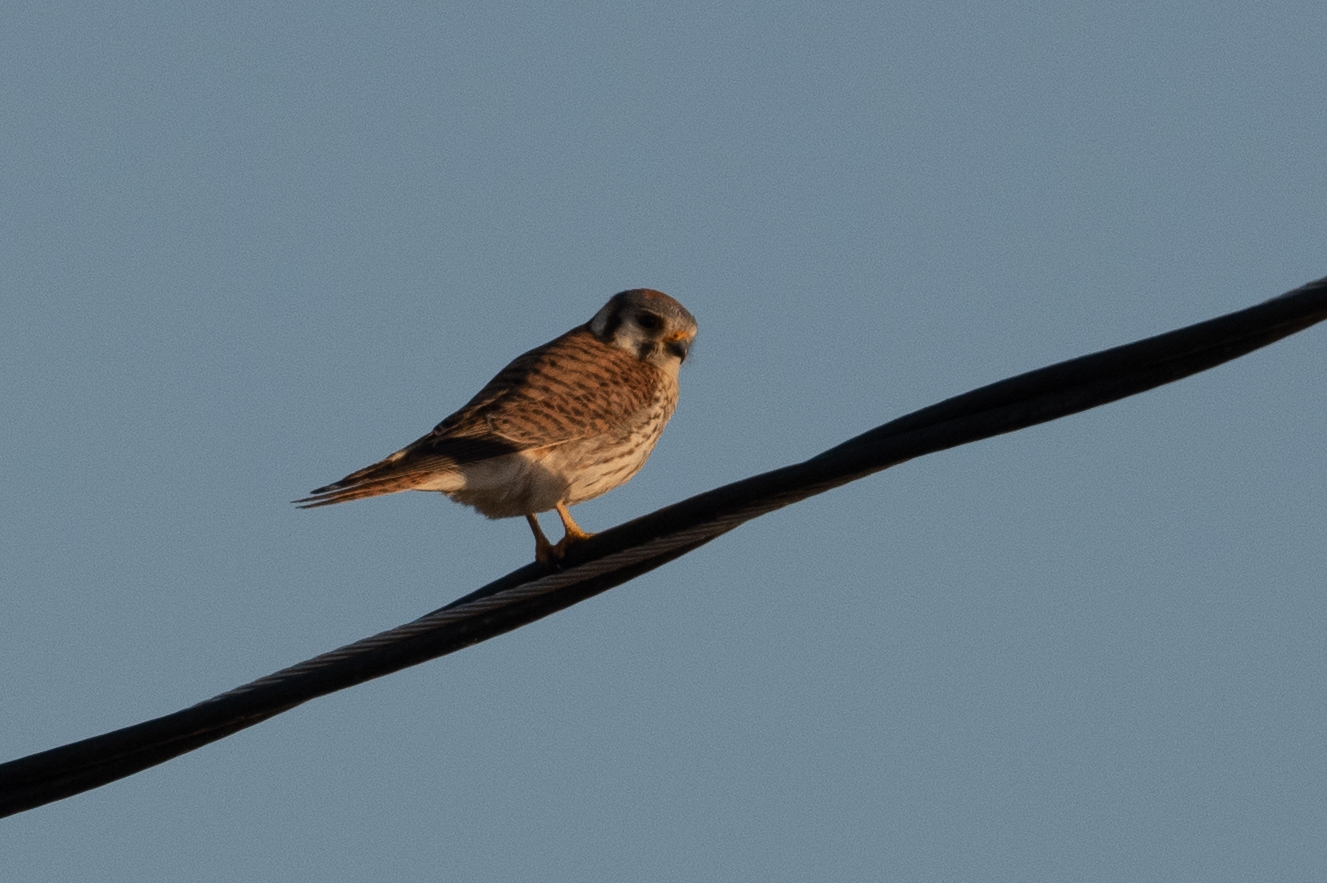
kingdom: Animalia
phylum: Chordata
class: Aves
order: Falconiformes
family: Falconidae
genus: Falco
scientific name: Falco sparverius
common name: American kestrel
